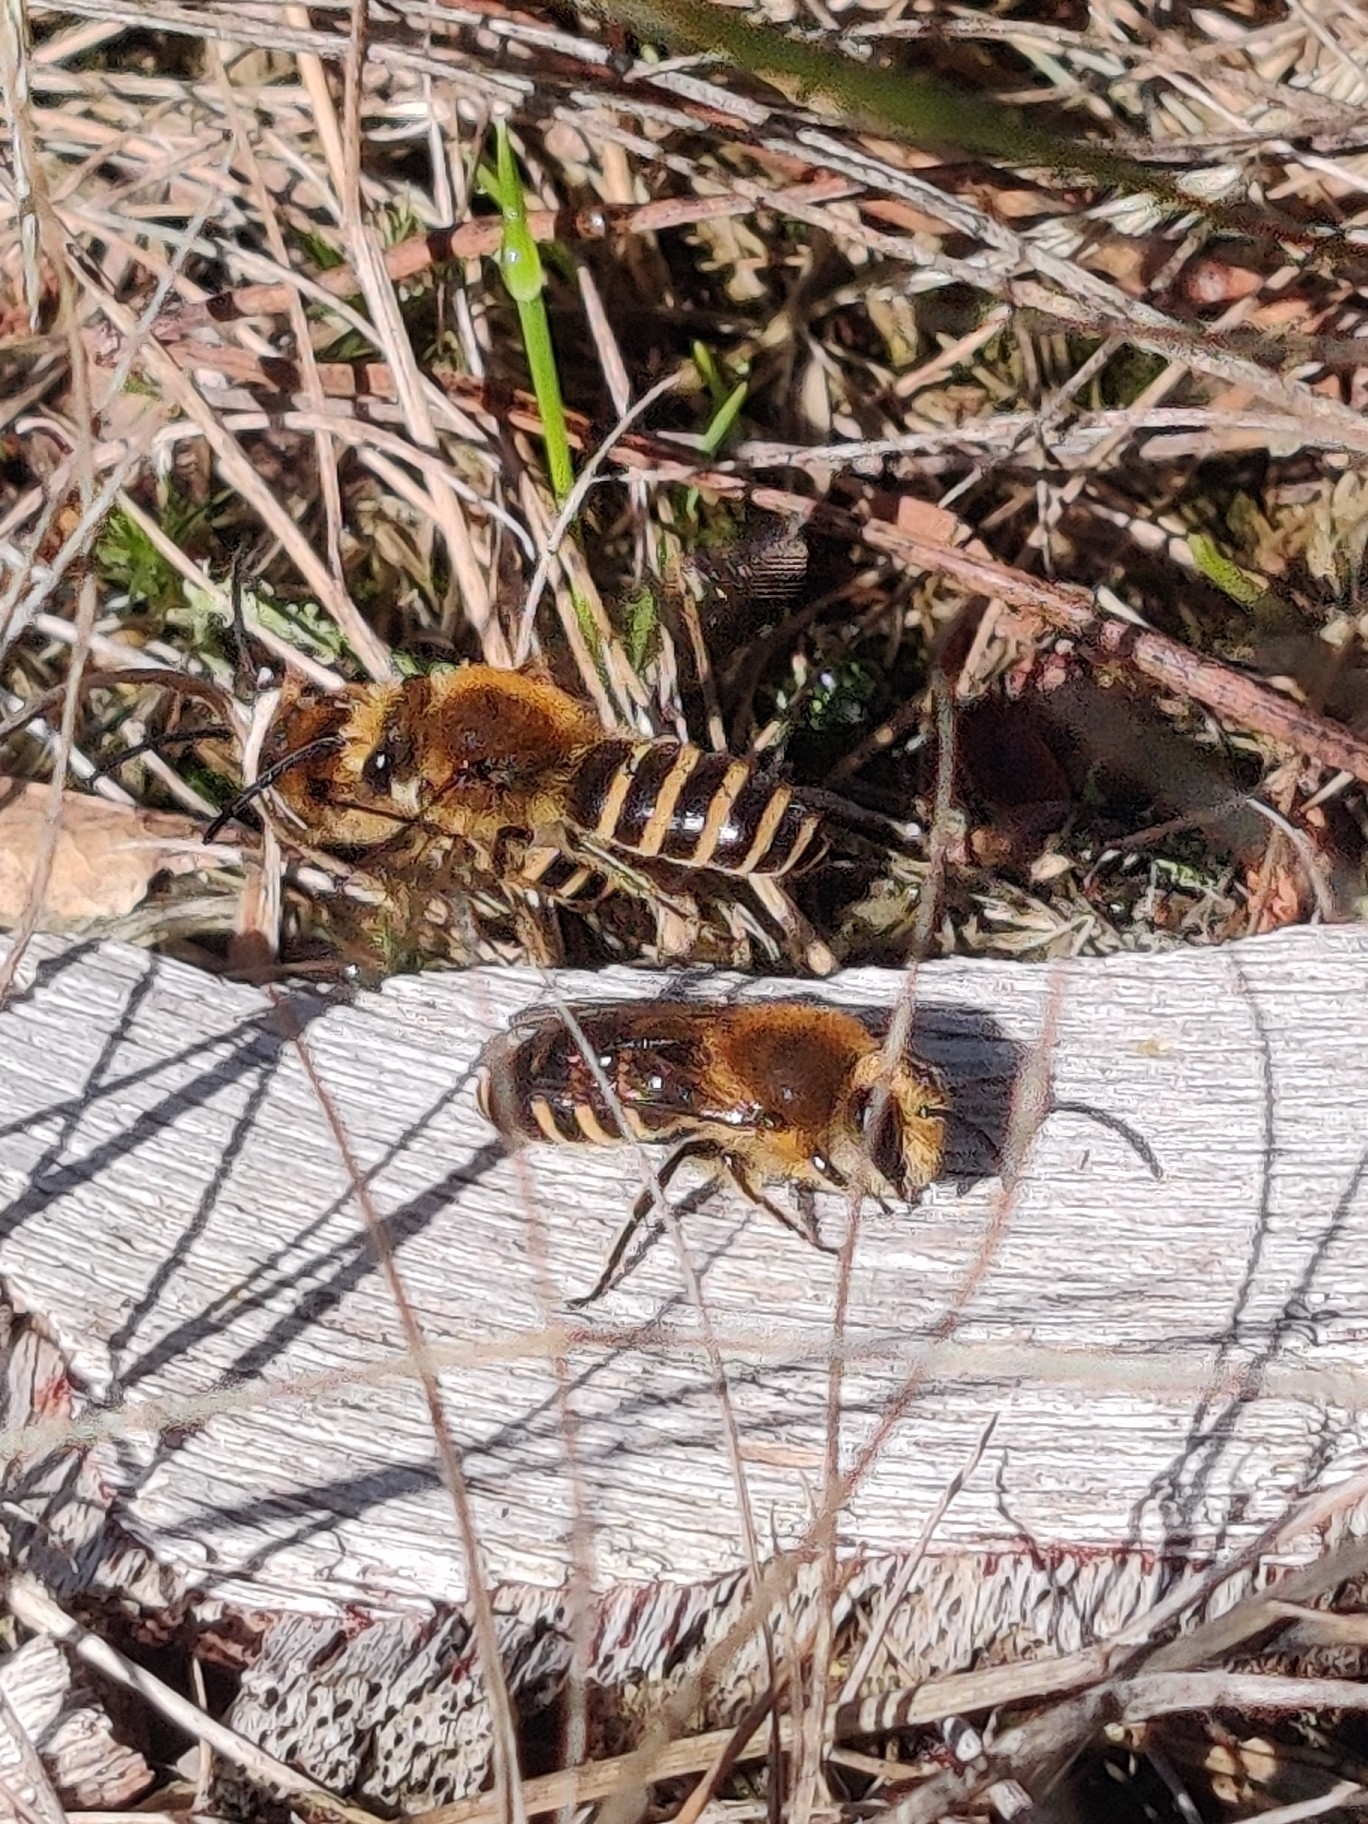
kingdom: Animalia
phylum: Arthropoda
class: Insecta
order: Hymenoptera
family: Colletidae
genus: Colletes
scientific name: Colletes hederae
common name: Ivy bee
